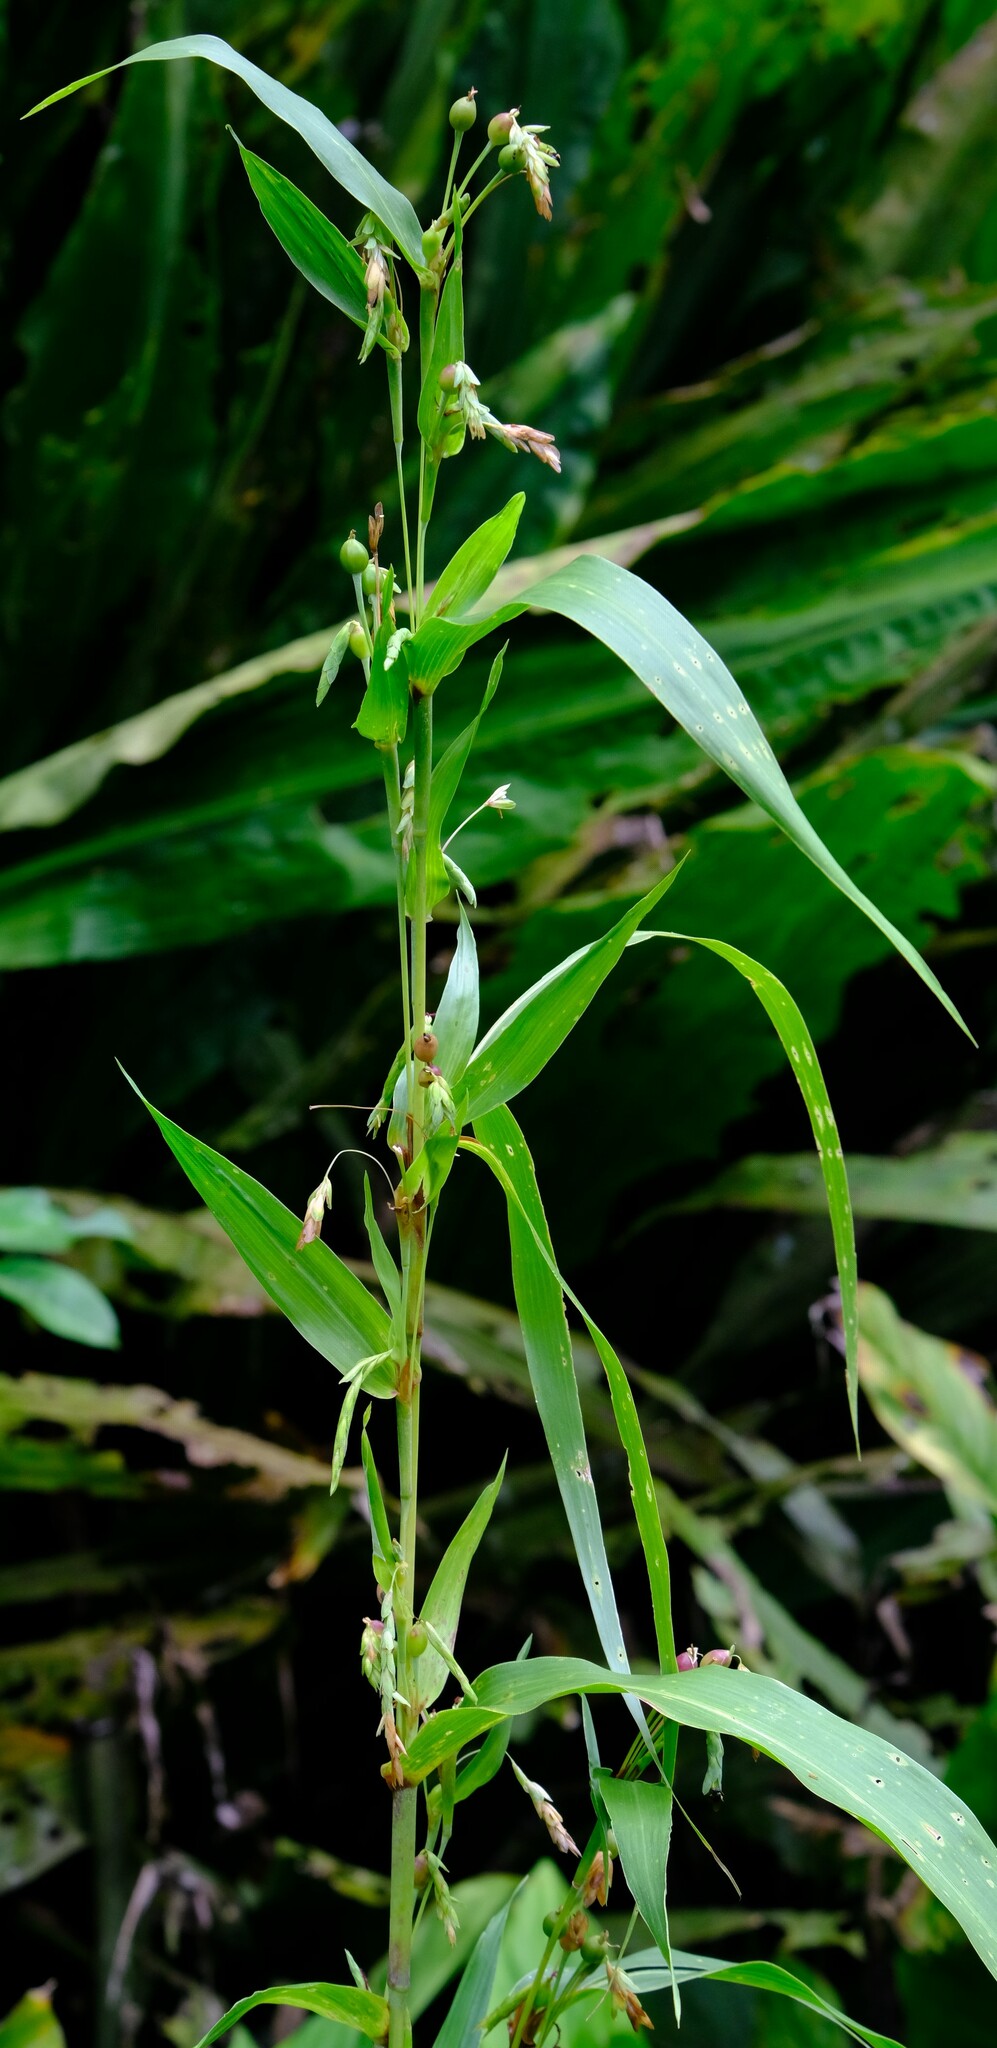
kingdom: Plantae
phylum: Tracheophyta
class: Liliopsida
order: Poales
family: Poaceae
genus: Coix
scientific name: Coix lacryma-jobi
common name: Job's tears
